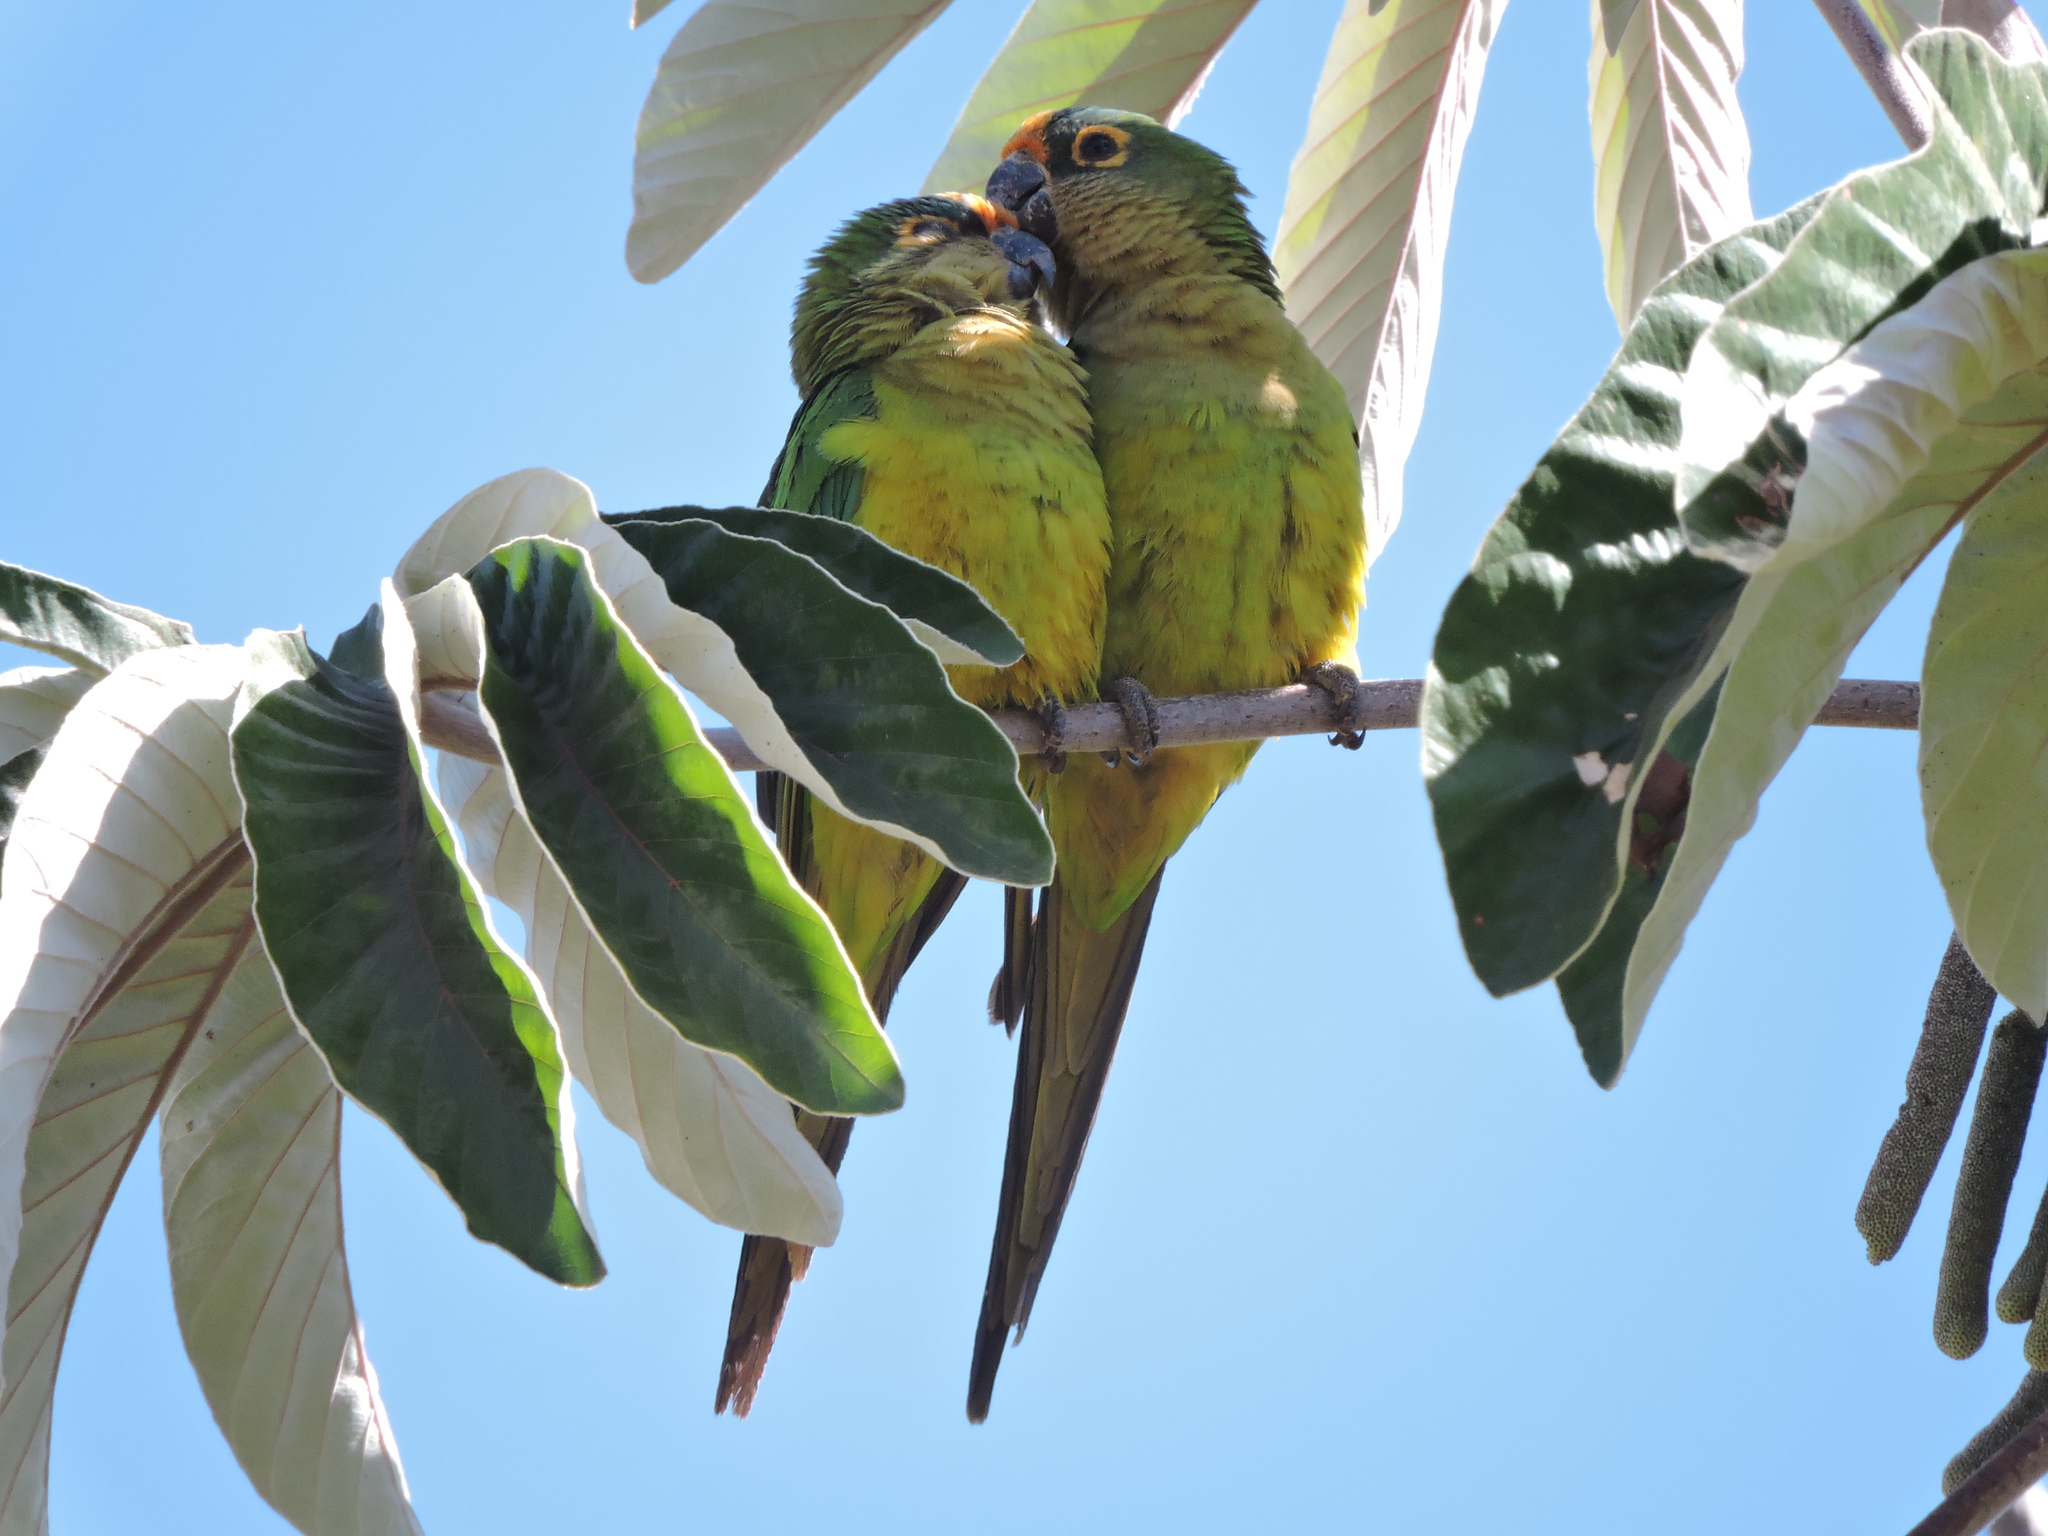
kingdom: Animalia
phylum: Chordata
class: Aves
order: Psittaciformes
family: Psittacidae
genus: Aratinga
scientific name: Aratinga aurea
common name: Peach-fronted parakeet
